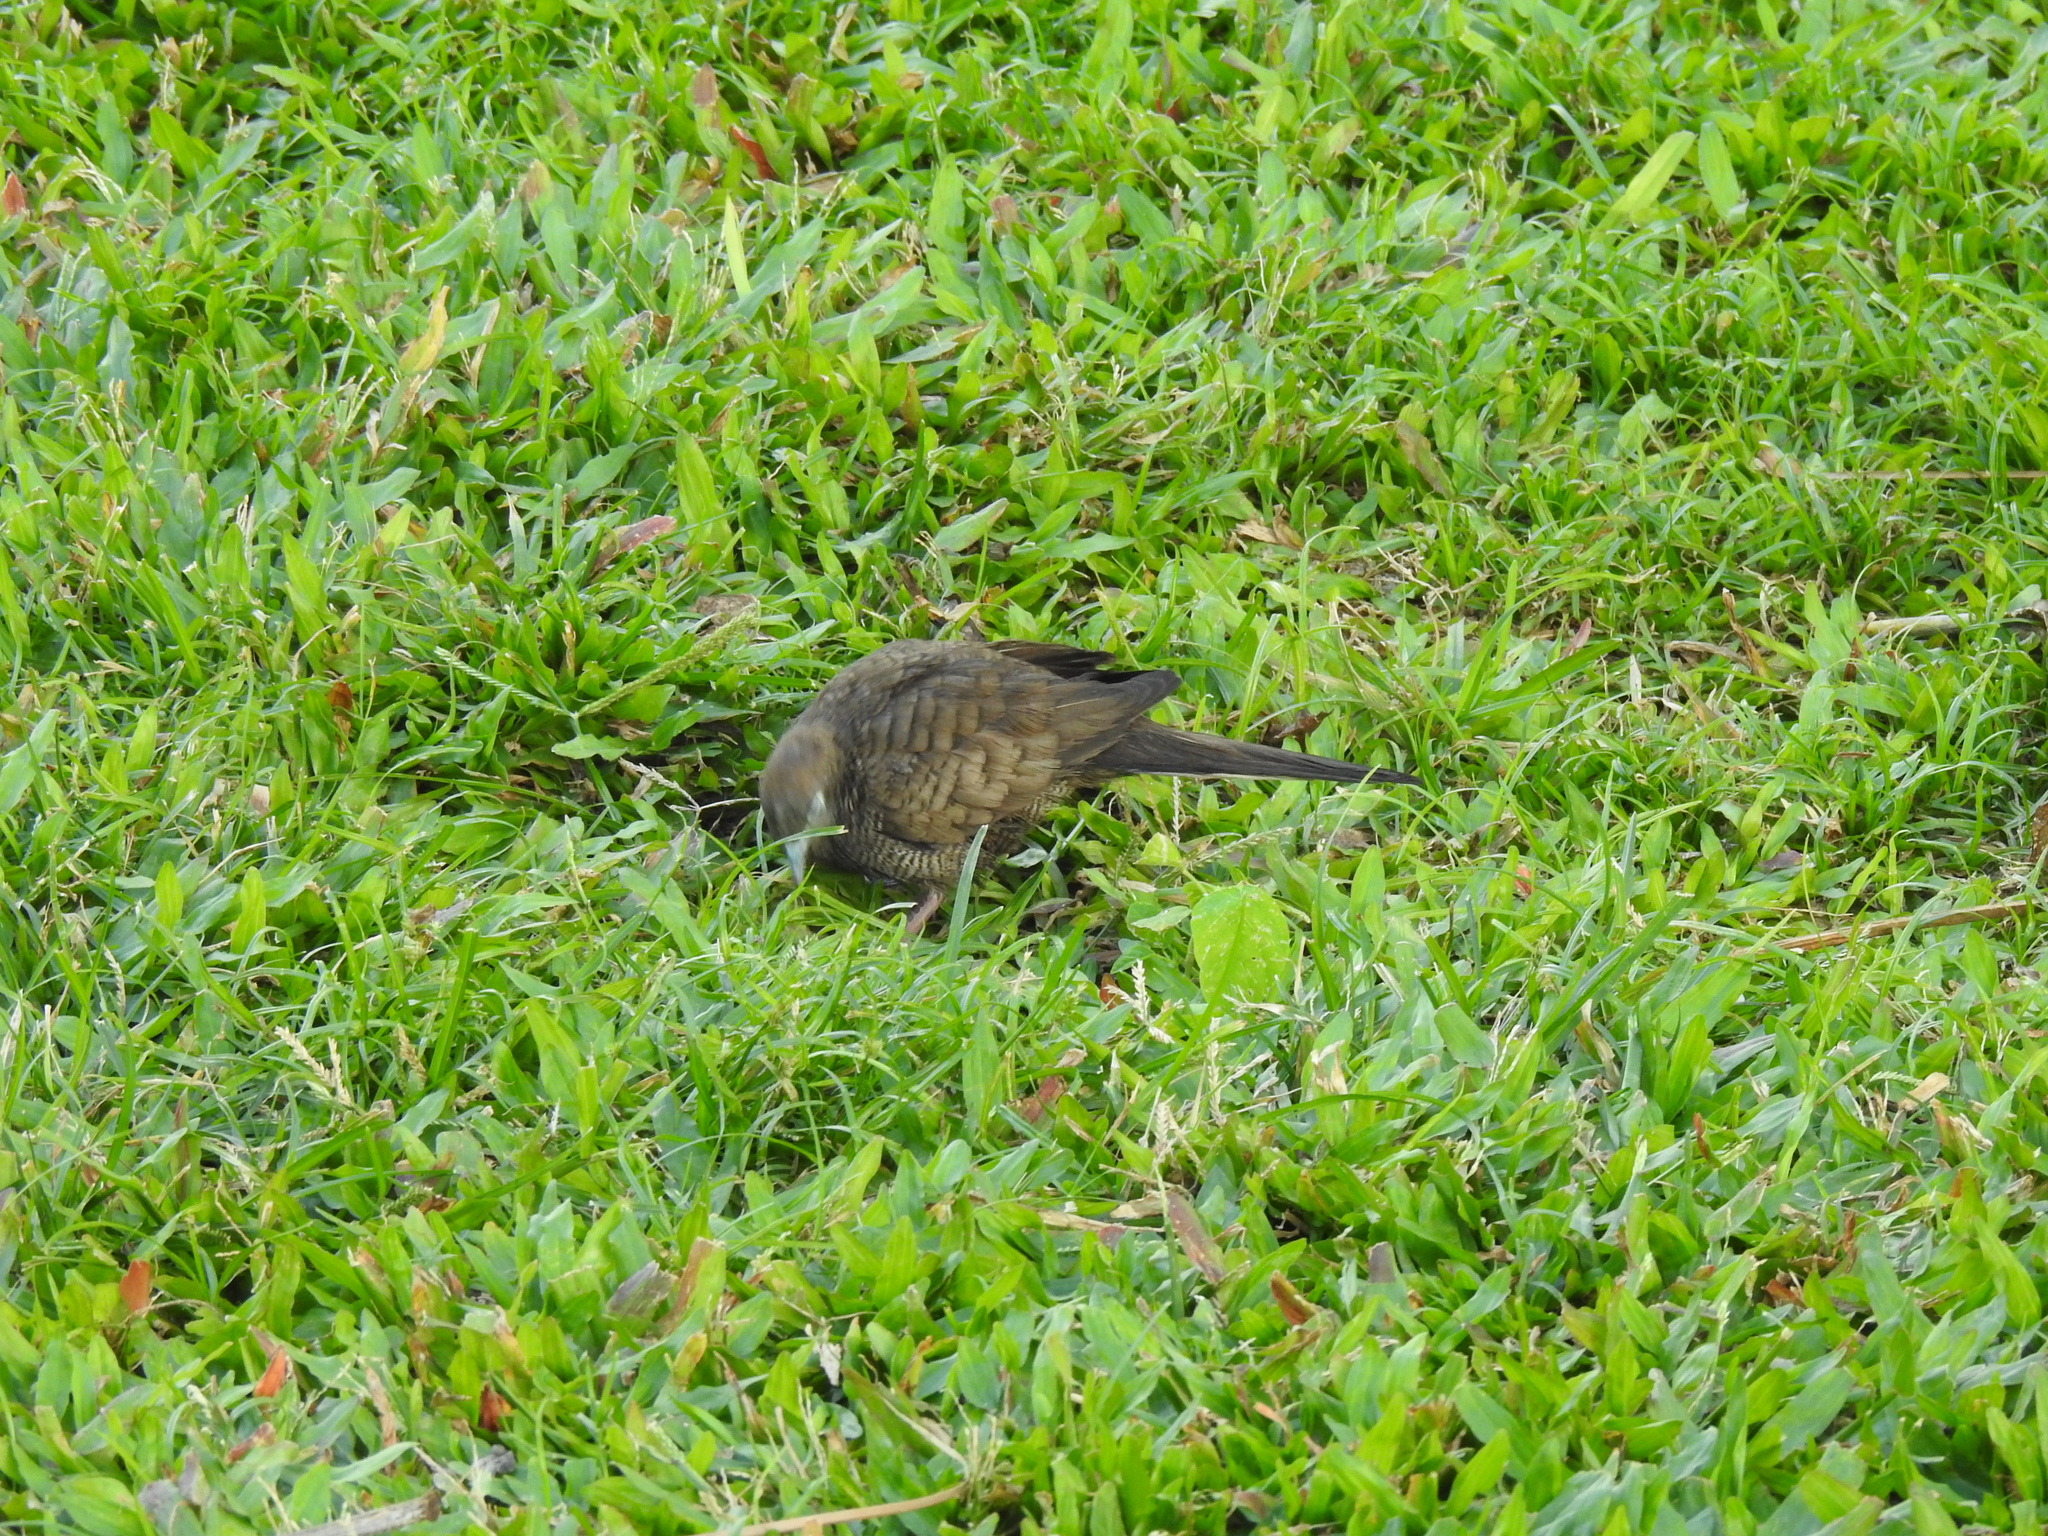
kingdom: Animalia
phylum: Chordata
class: Aves
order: Columbiformes
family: Columbidae
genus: Geopelia
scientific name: Geopelia striata
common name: Zebra dove
